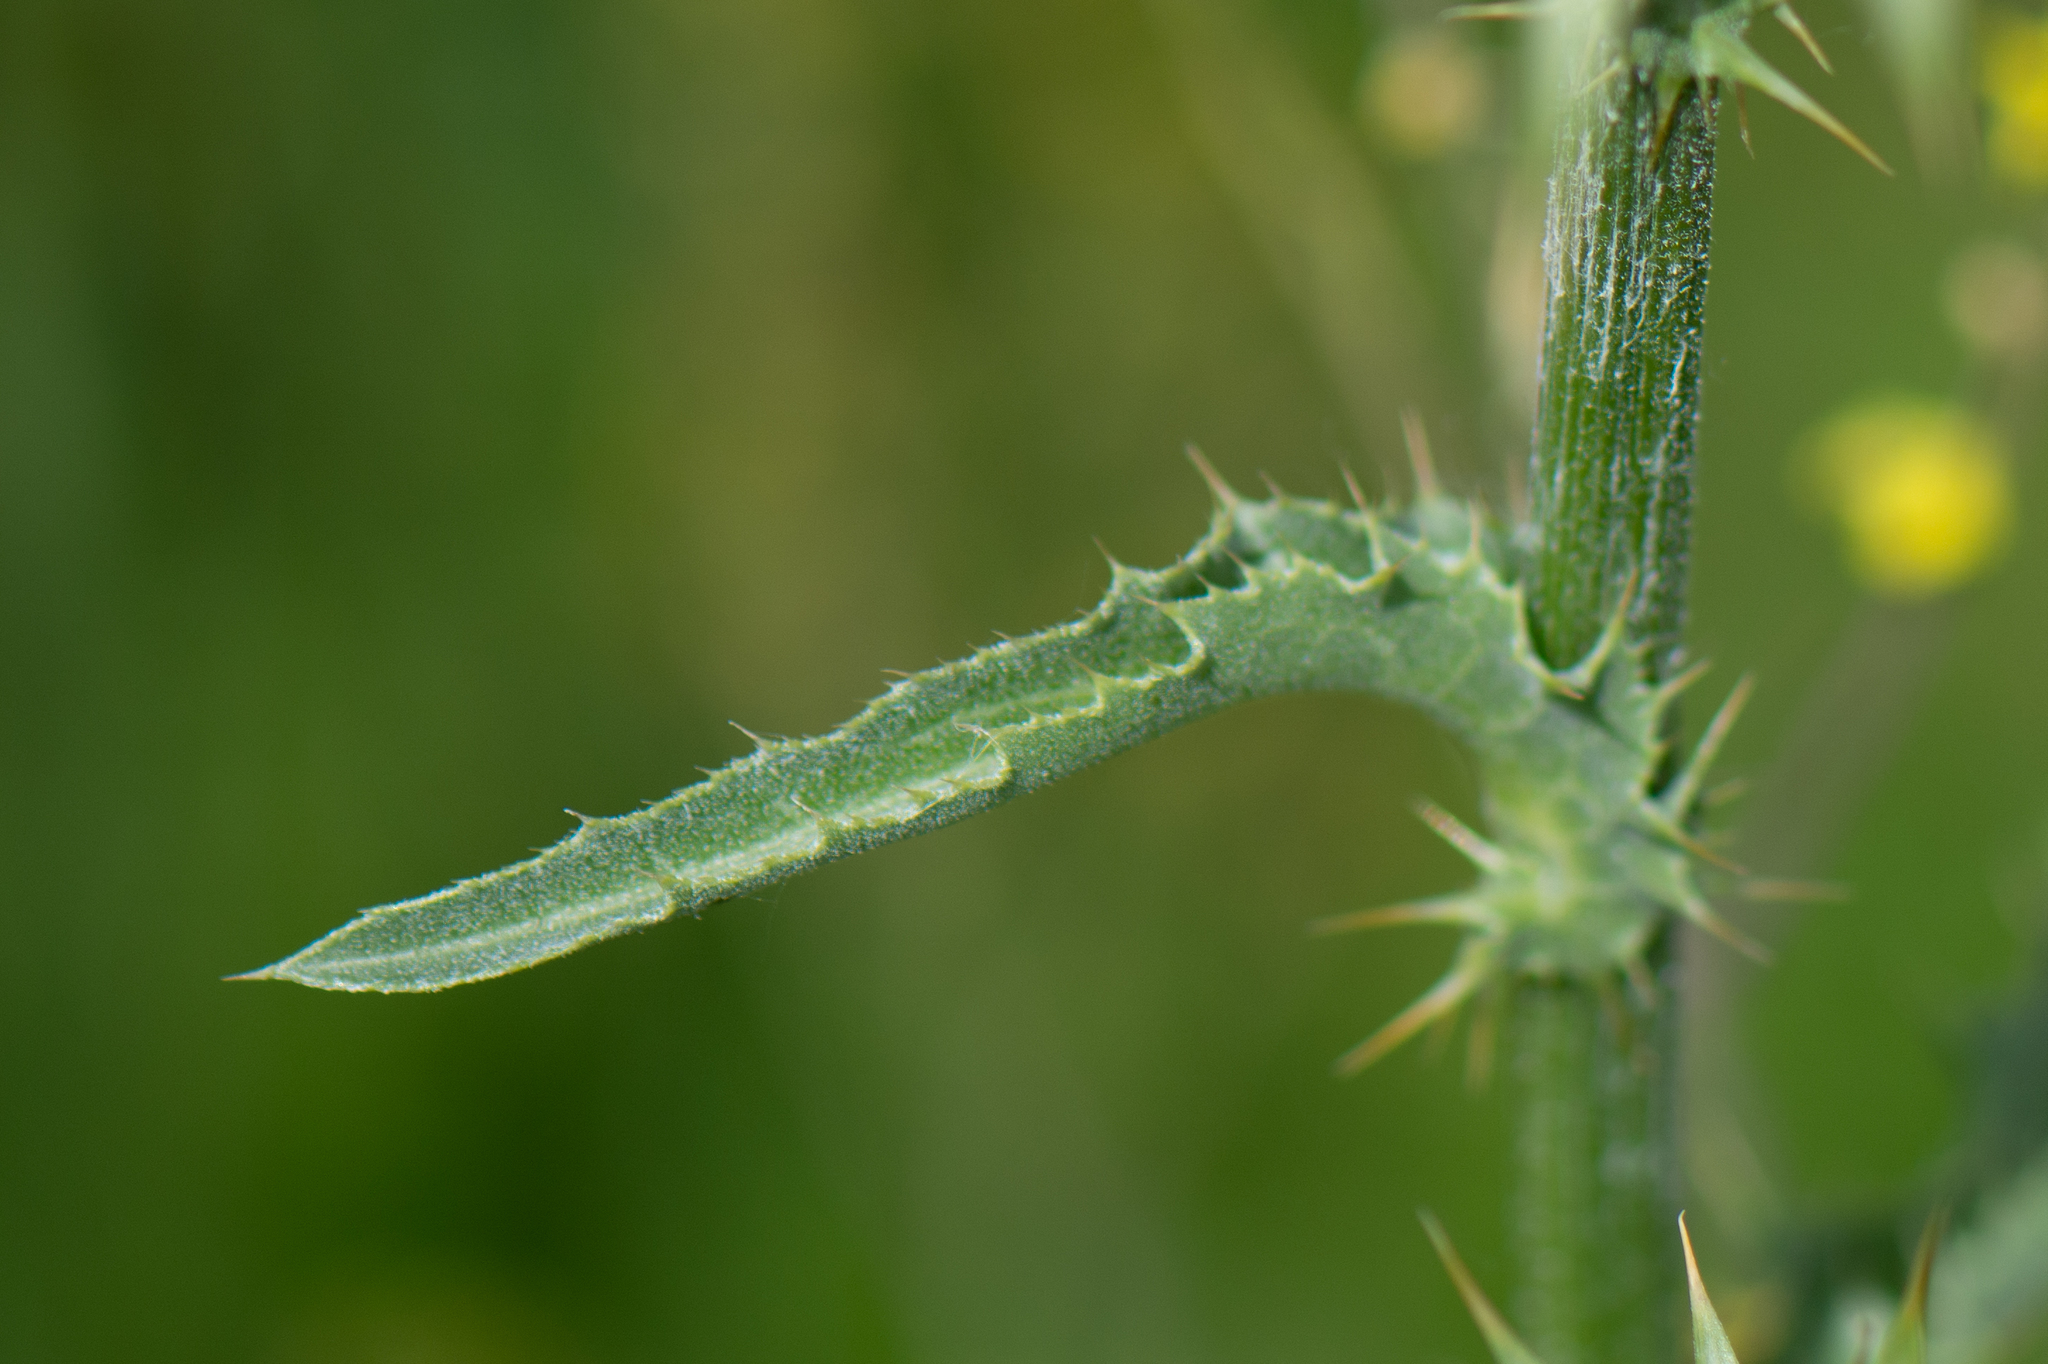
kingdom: Plantae
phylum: Tracheophyta
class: Magnoliopsida
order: Asterales
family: Asteraceae
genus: Silybum
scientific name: Silybum marianum
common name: Milk thistle
